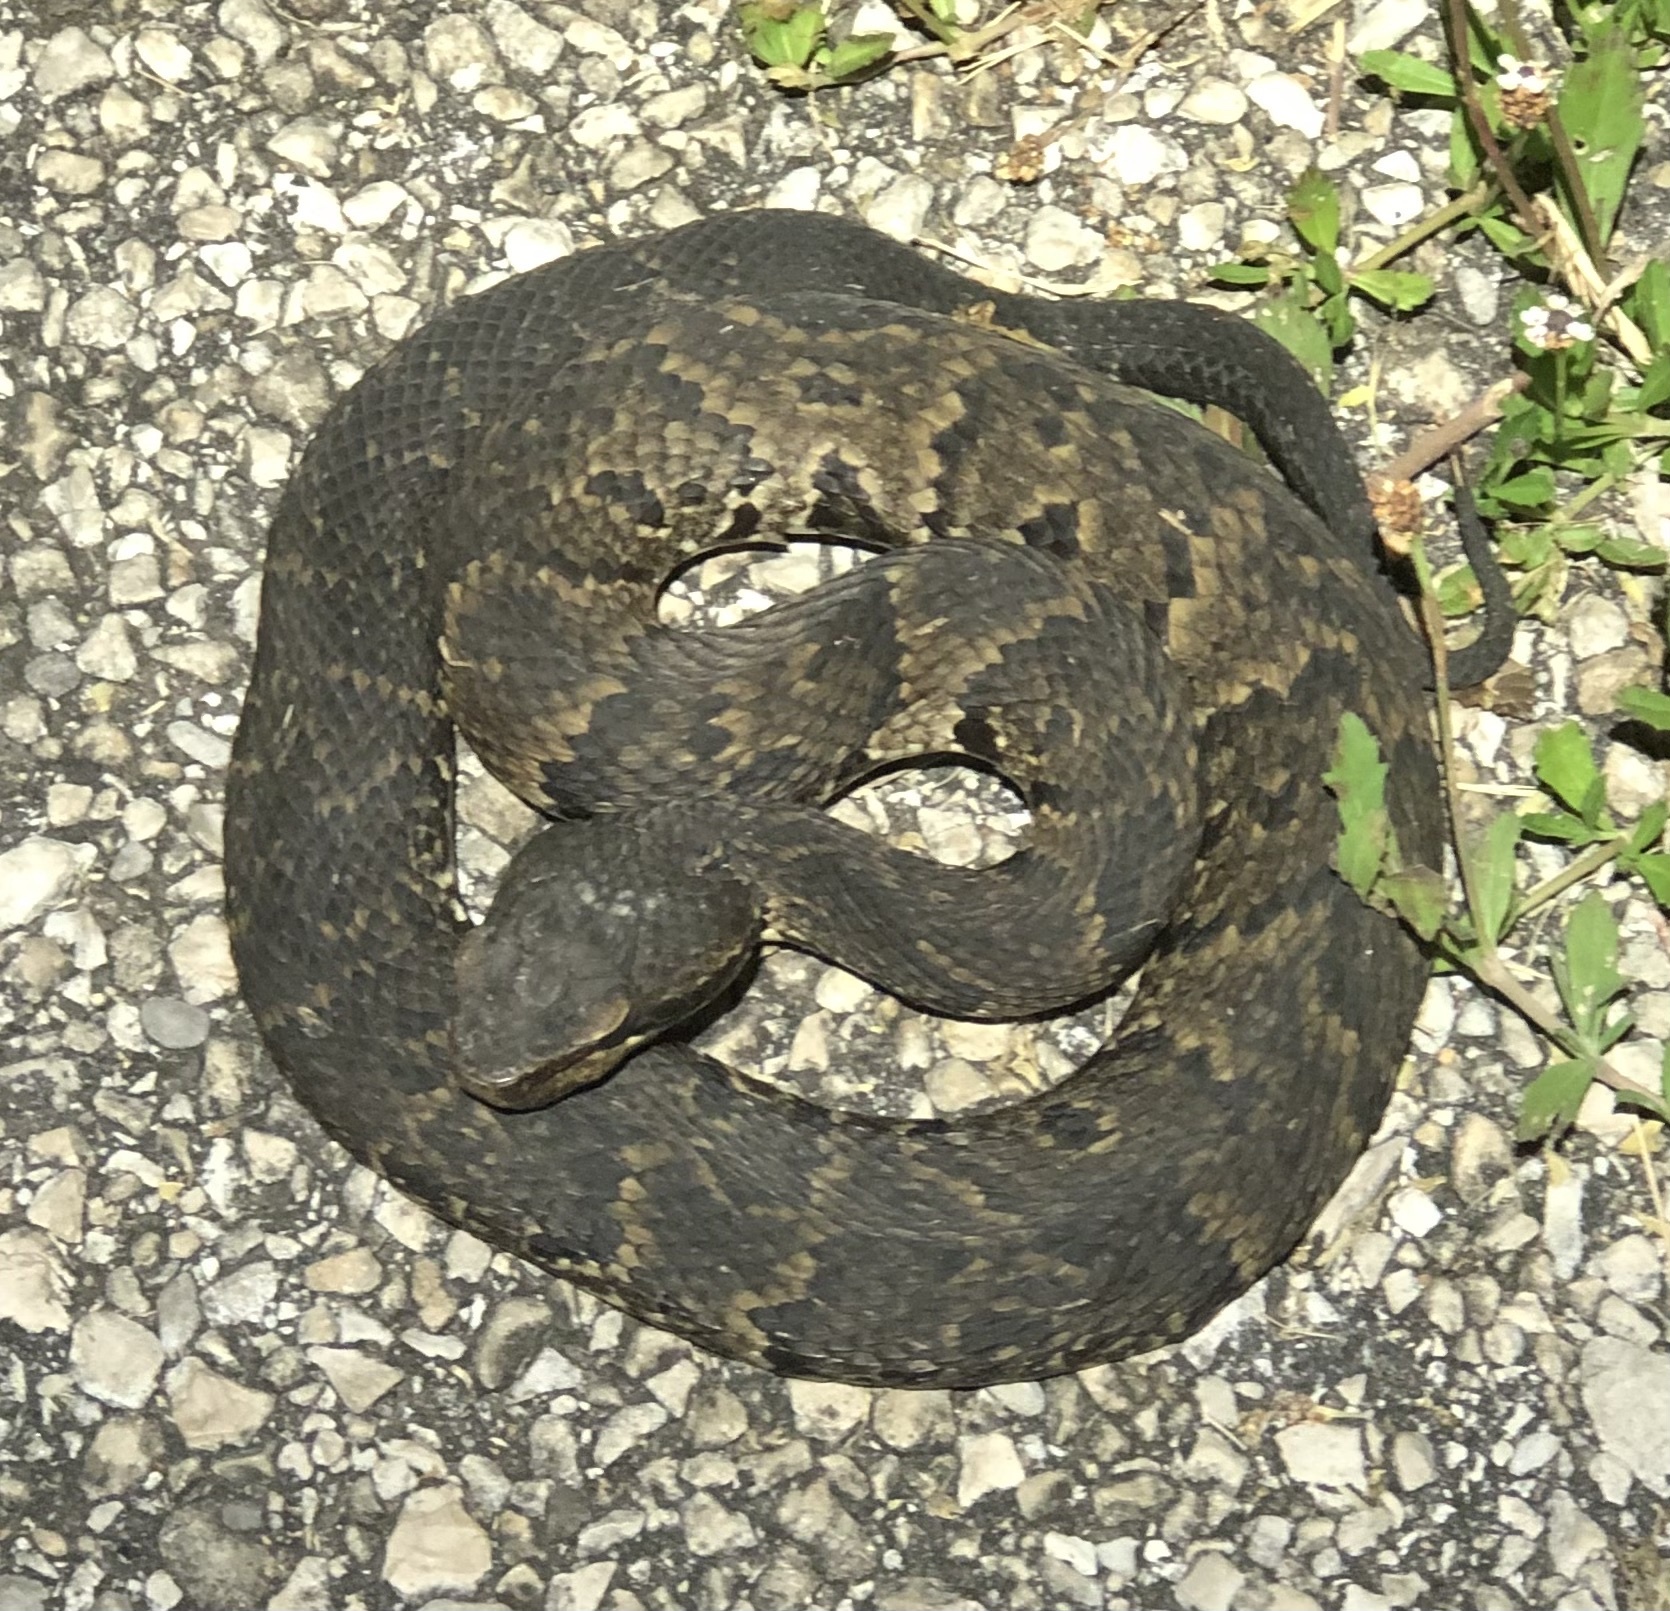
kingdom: Animalia
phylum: Chordata
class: Squamata
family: Viperidae
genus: Agkistrodon
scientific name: Agkistrodon piscivorus
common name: Cottonmouth
